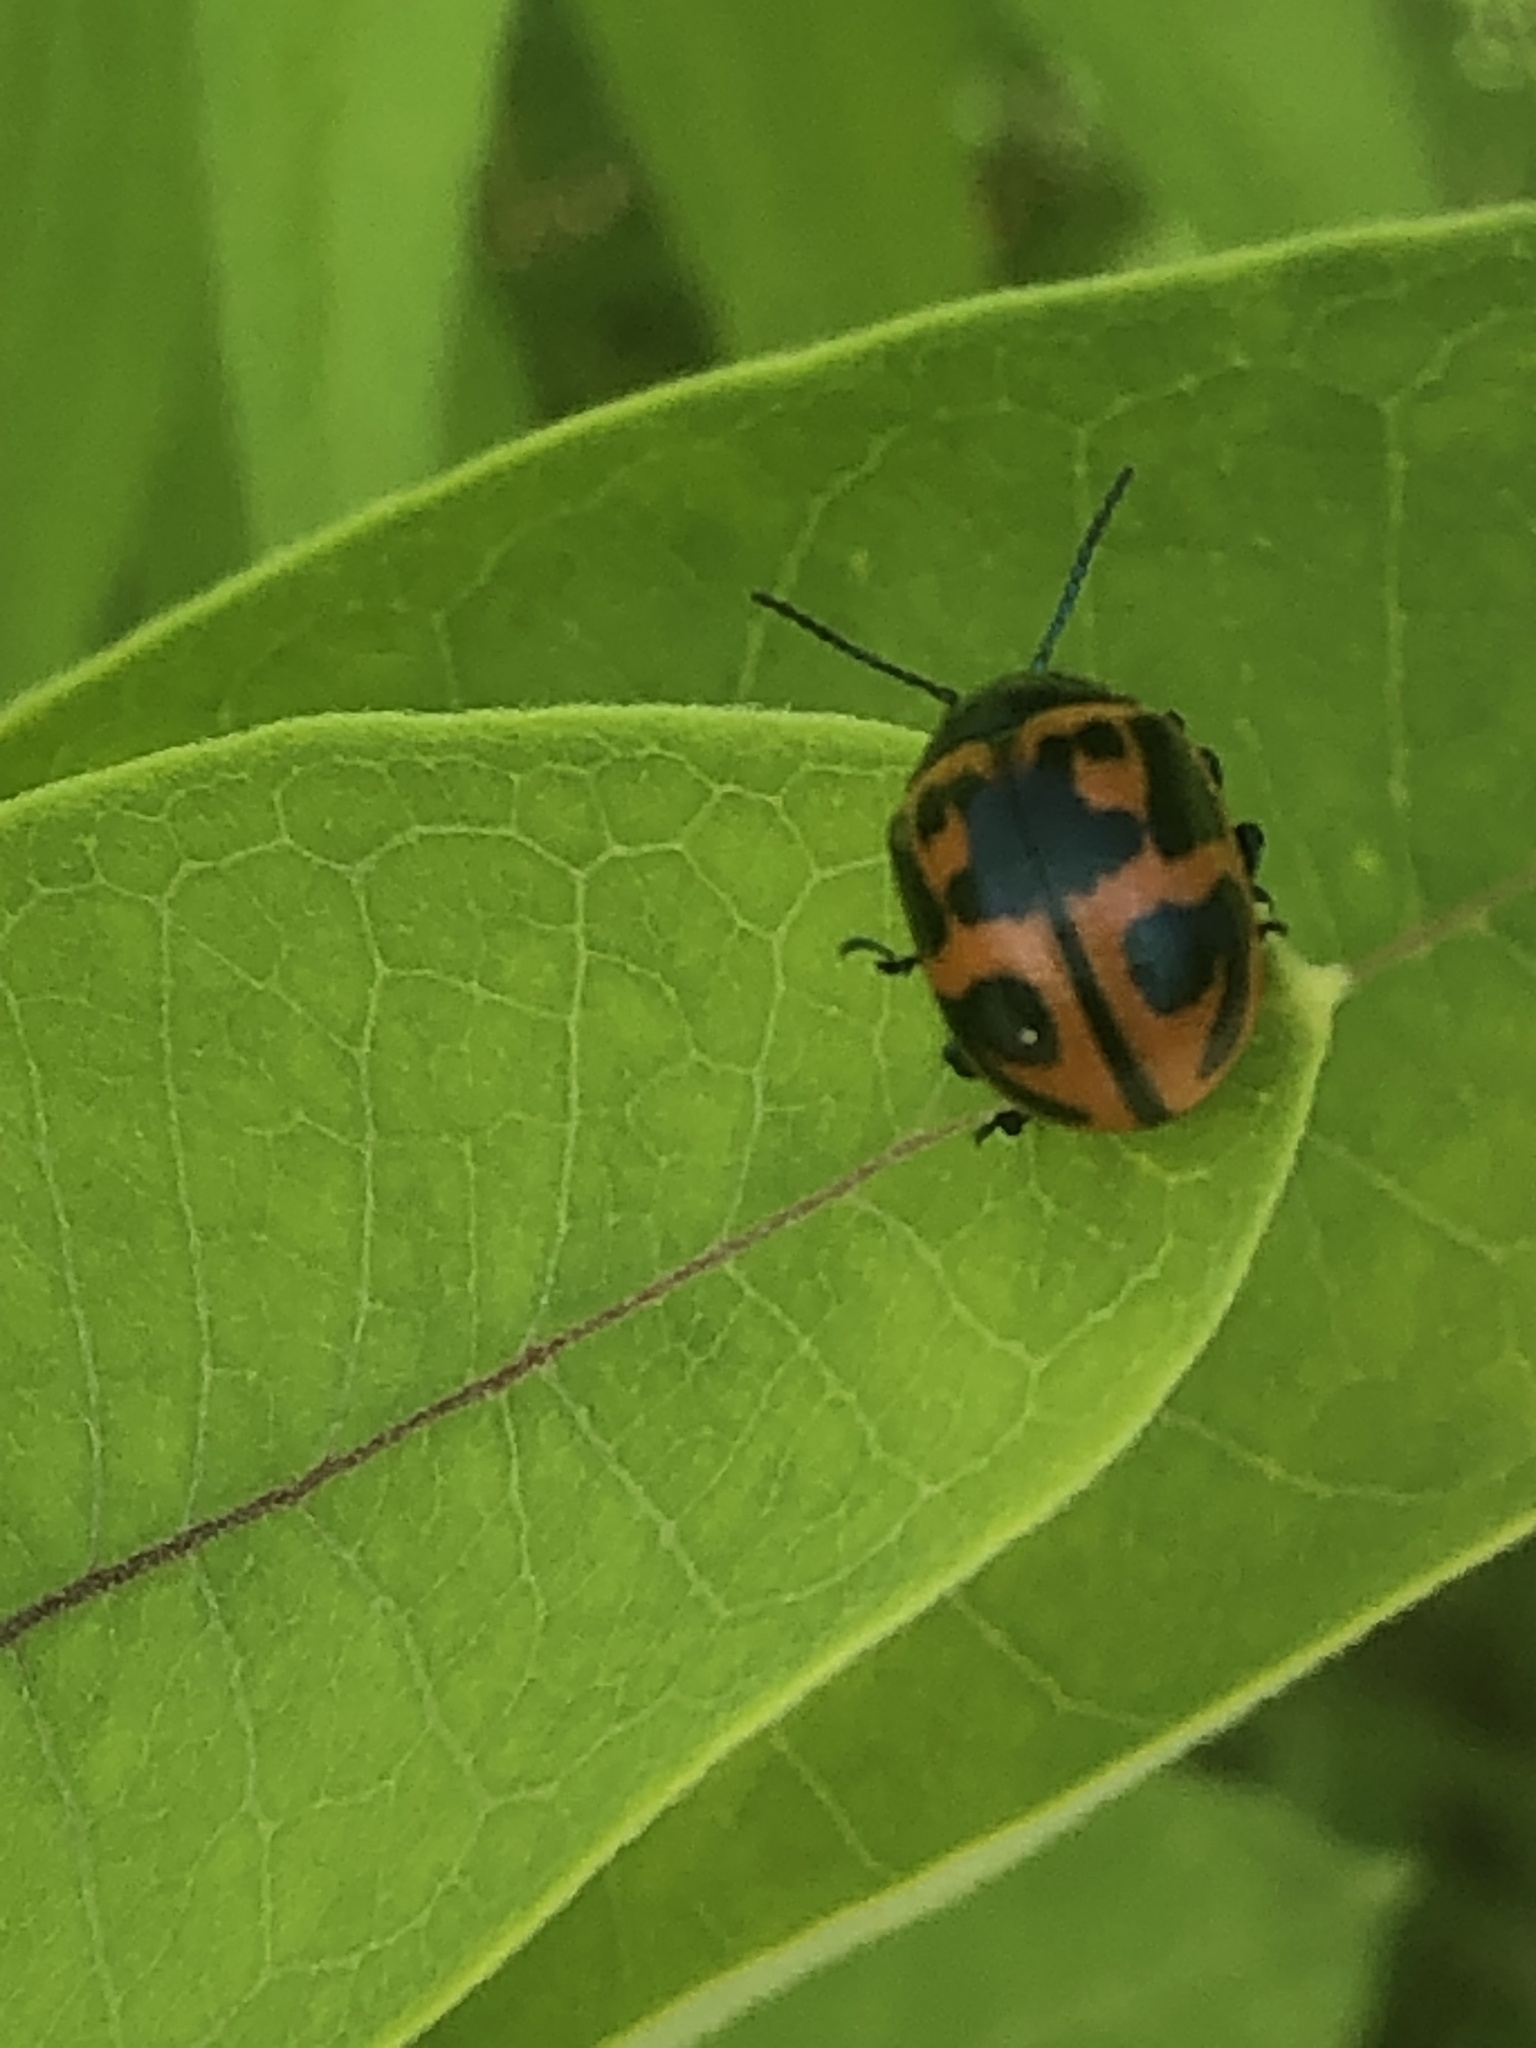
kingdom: Animalia
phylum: Arthropoda
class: Insecta
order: Coleoptera
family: Chrysomelidae
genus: Labidomera
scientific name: Labidomera clivicollis
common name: Swamp milkweed leaf beetle
